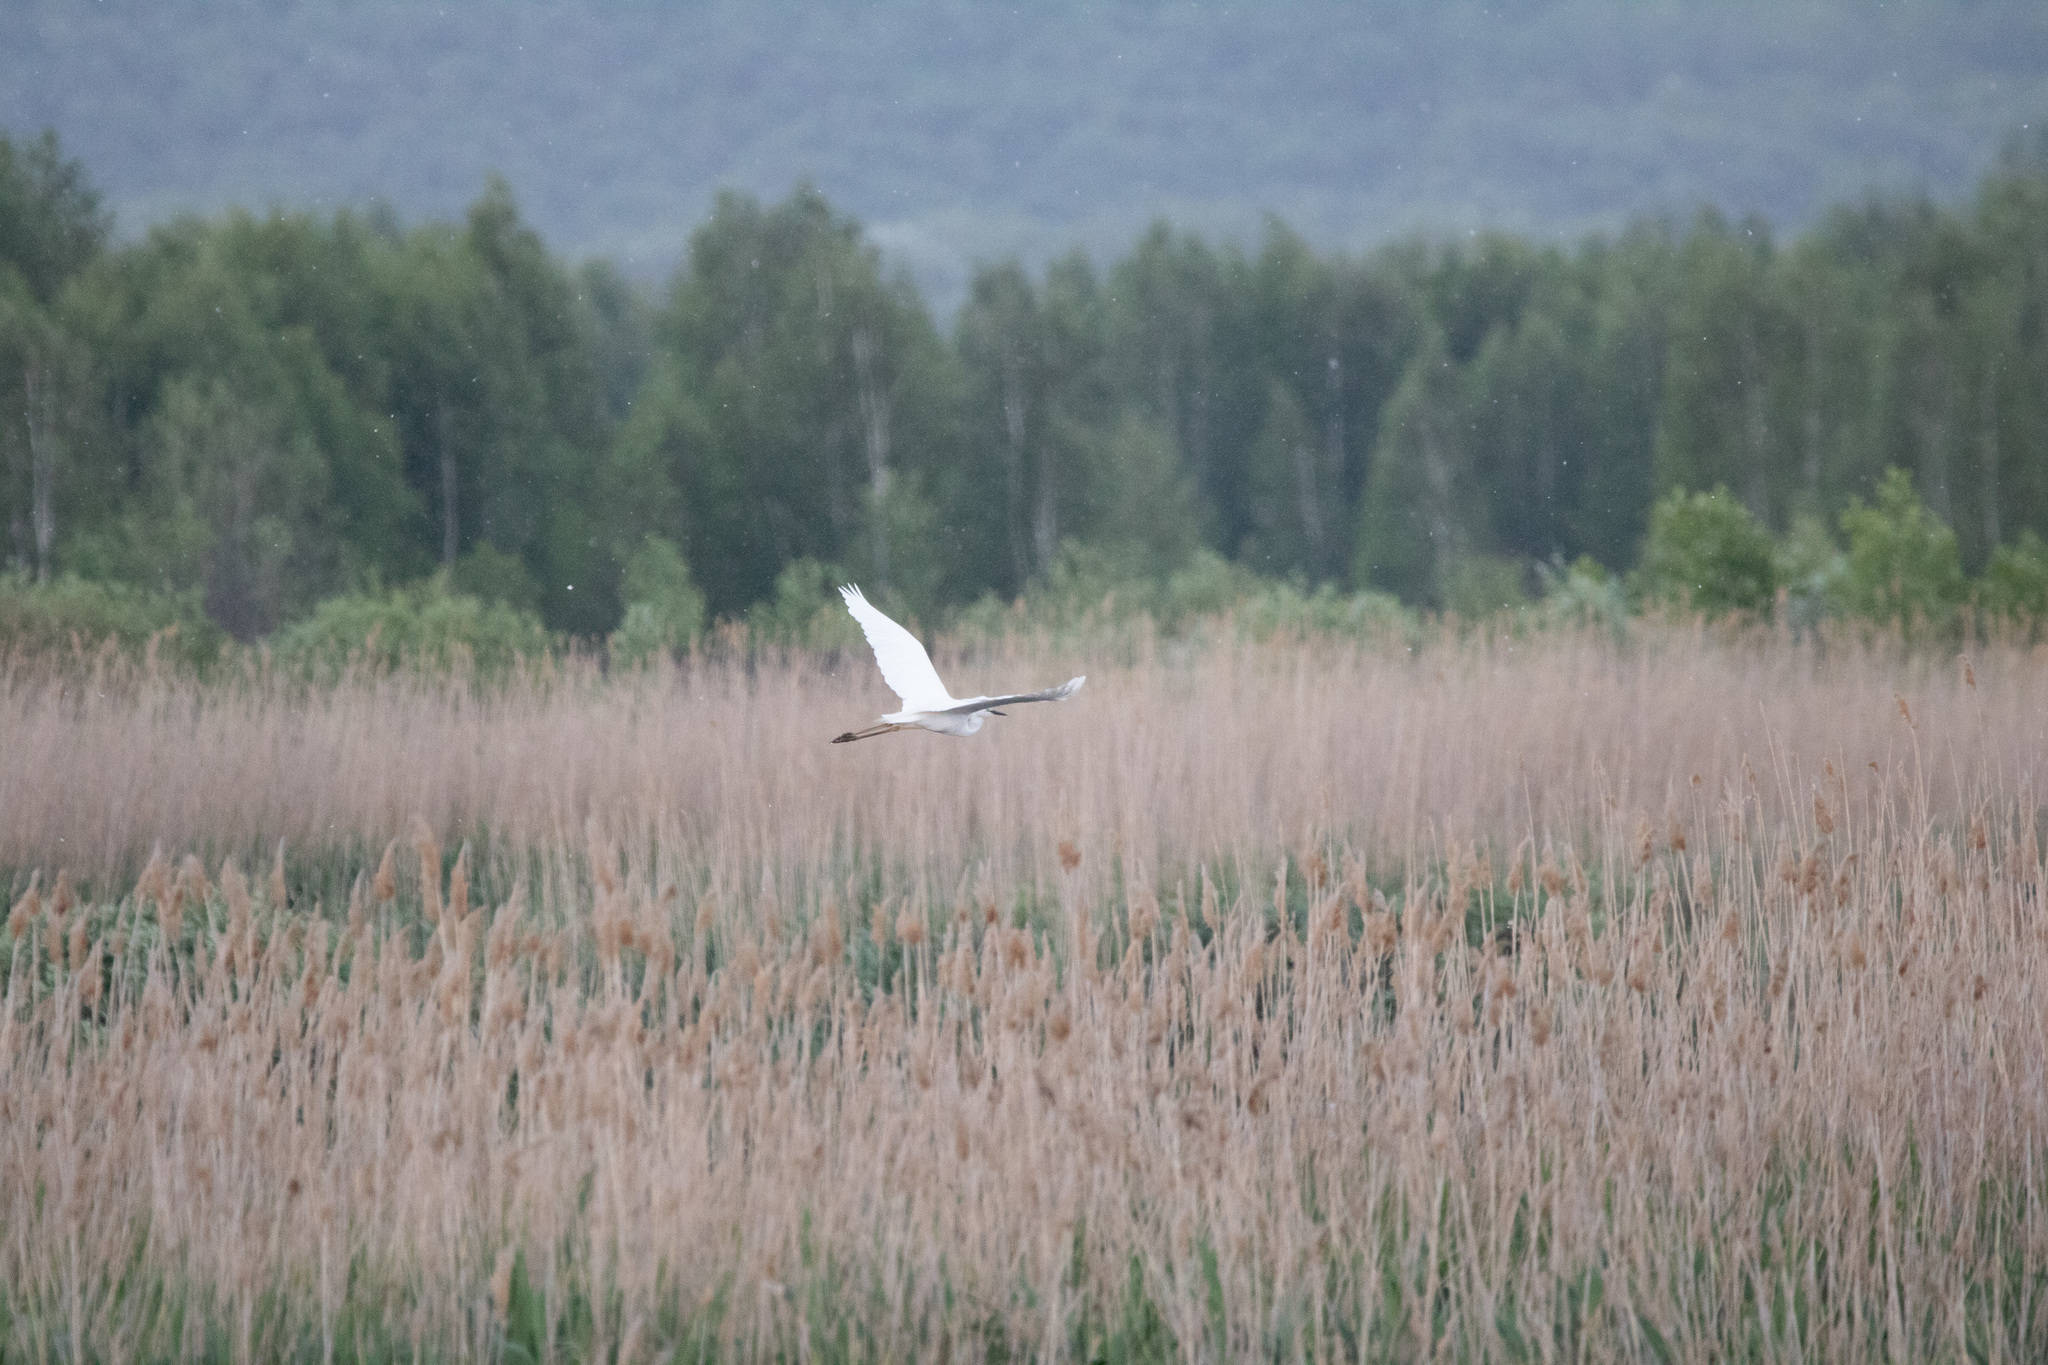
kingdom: Animalia
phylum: Chordata
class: Aves
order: Pelecaniformes
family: Ardeidae
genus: Ardea
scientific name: Ardea alba
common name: Great egret
